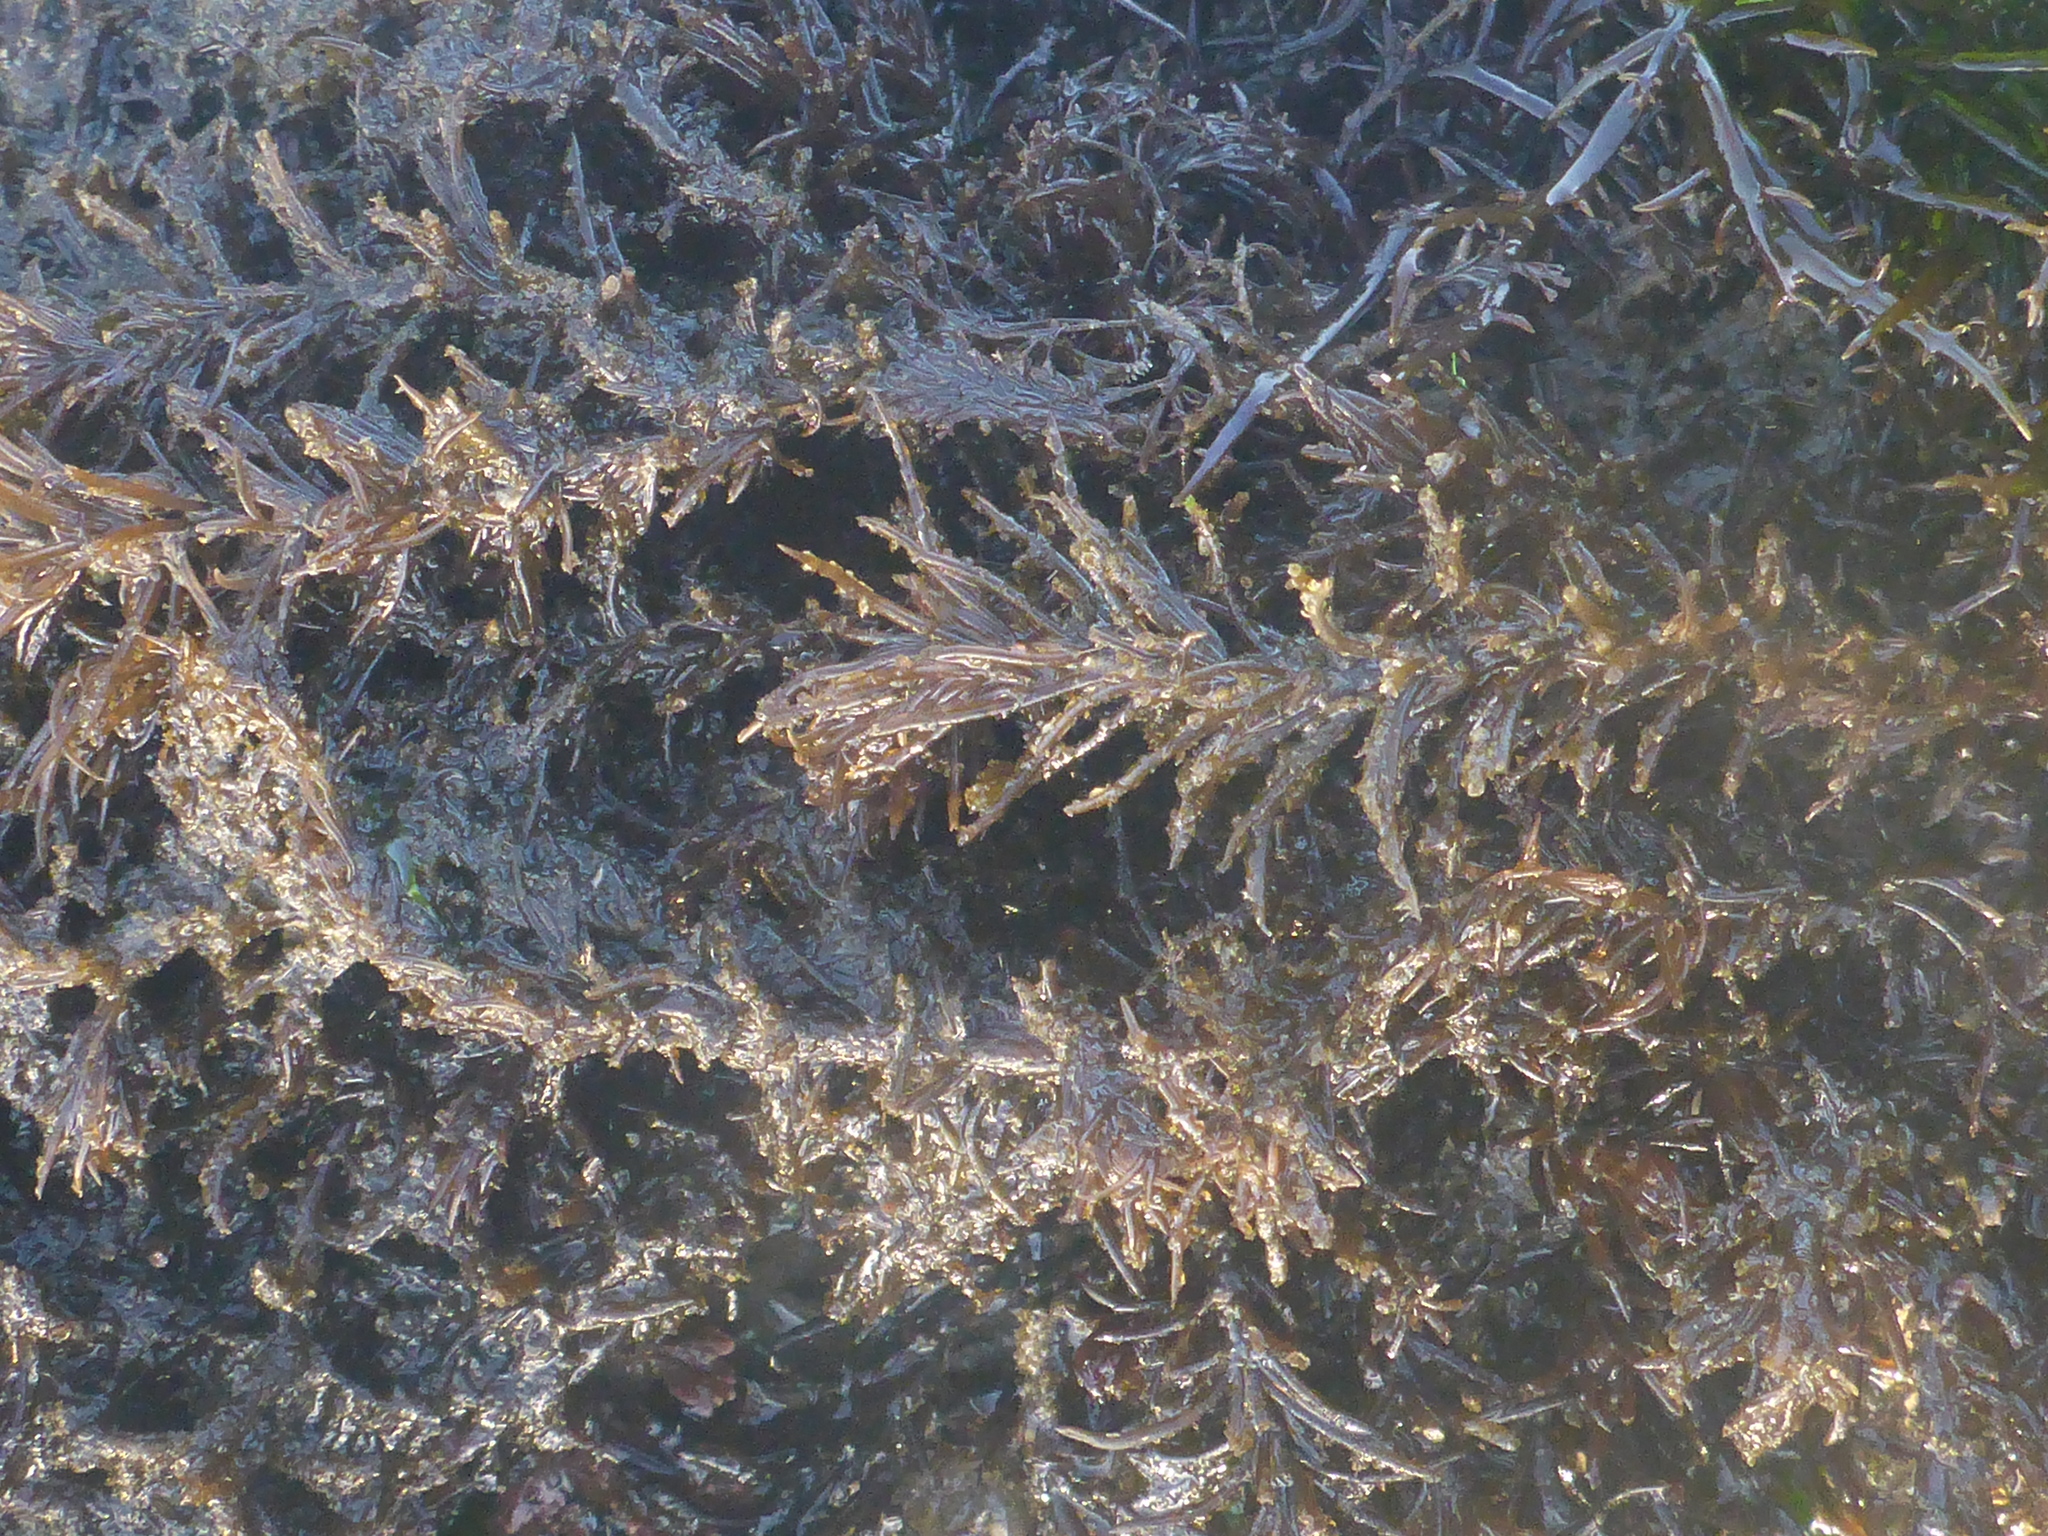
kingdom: Plantae
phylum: Rhodophyta
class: Florideophyceae
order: Ceramiales
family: Rhodomelaceae
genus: Neorhodomela
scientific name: Neorhodomela larix
